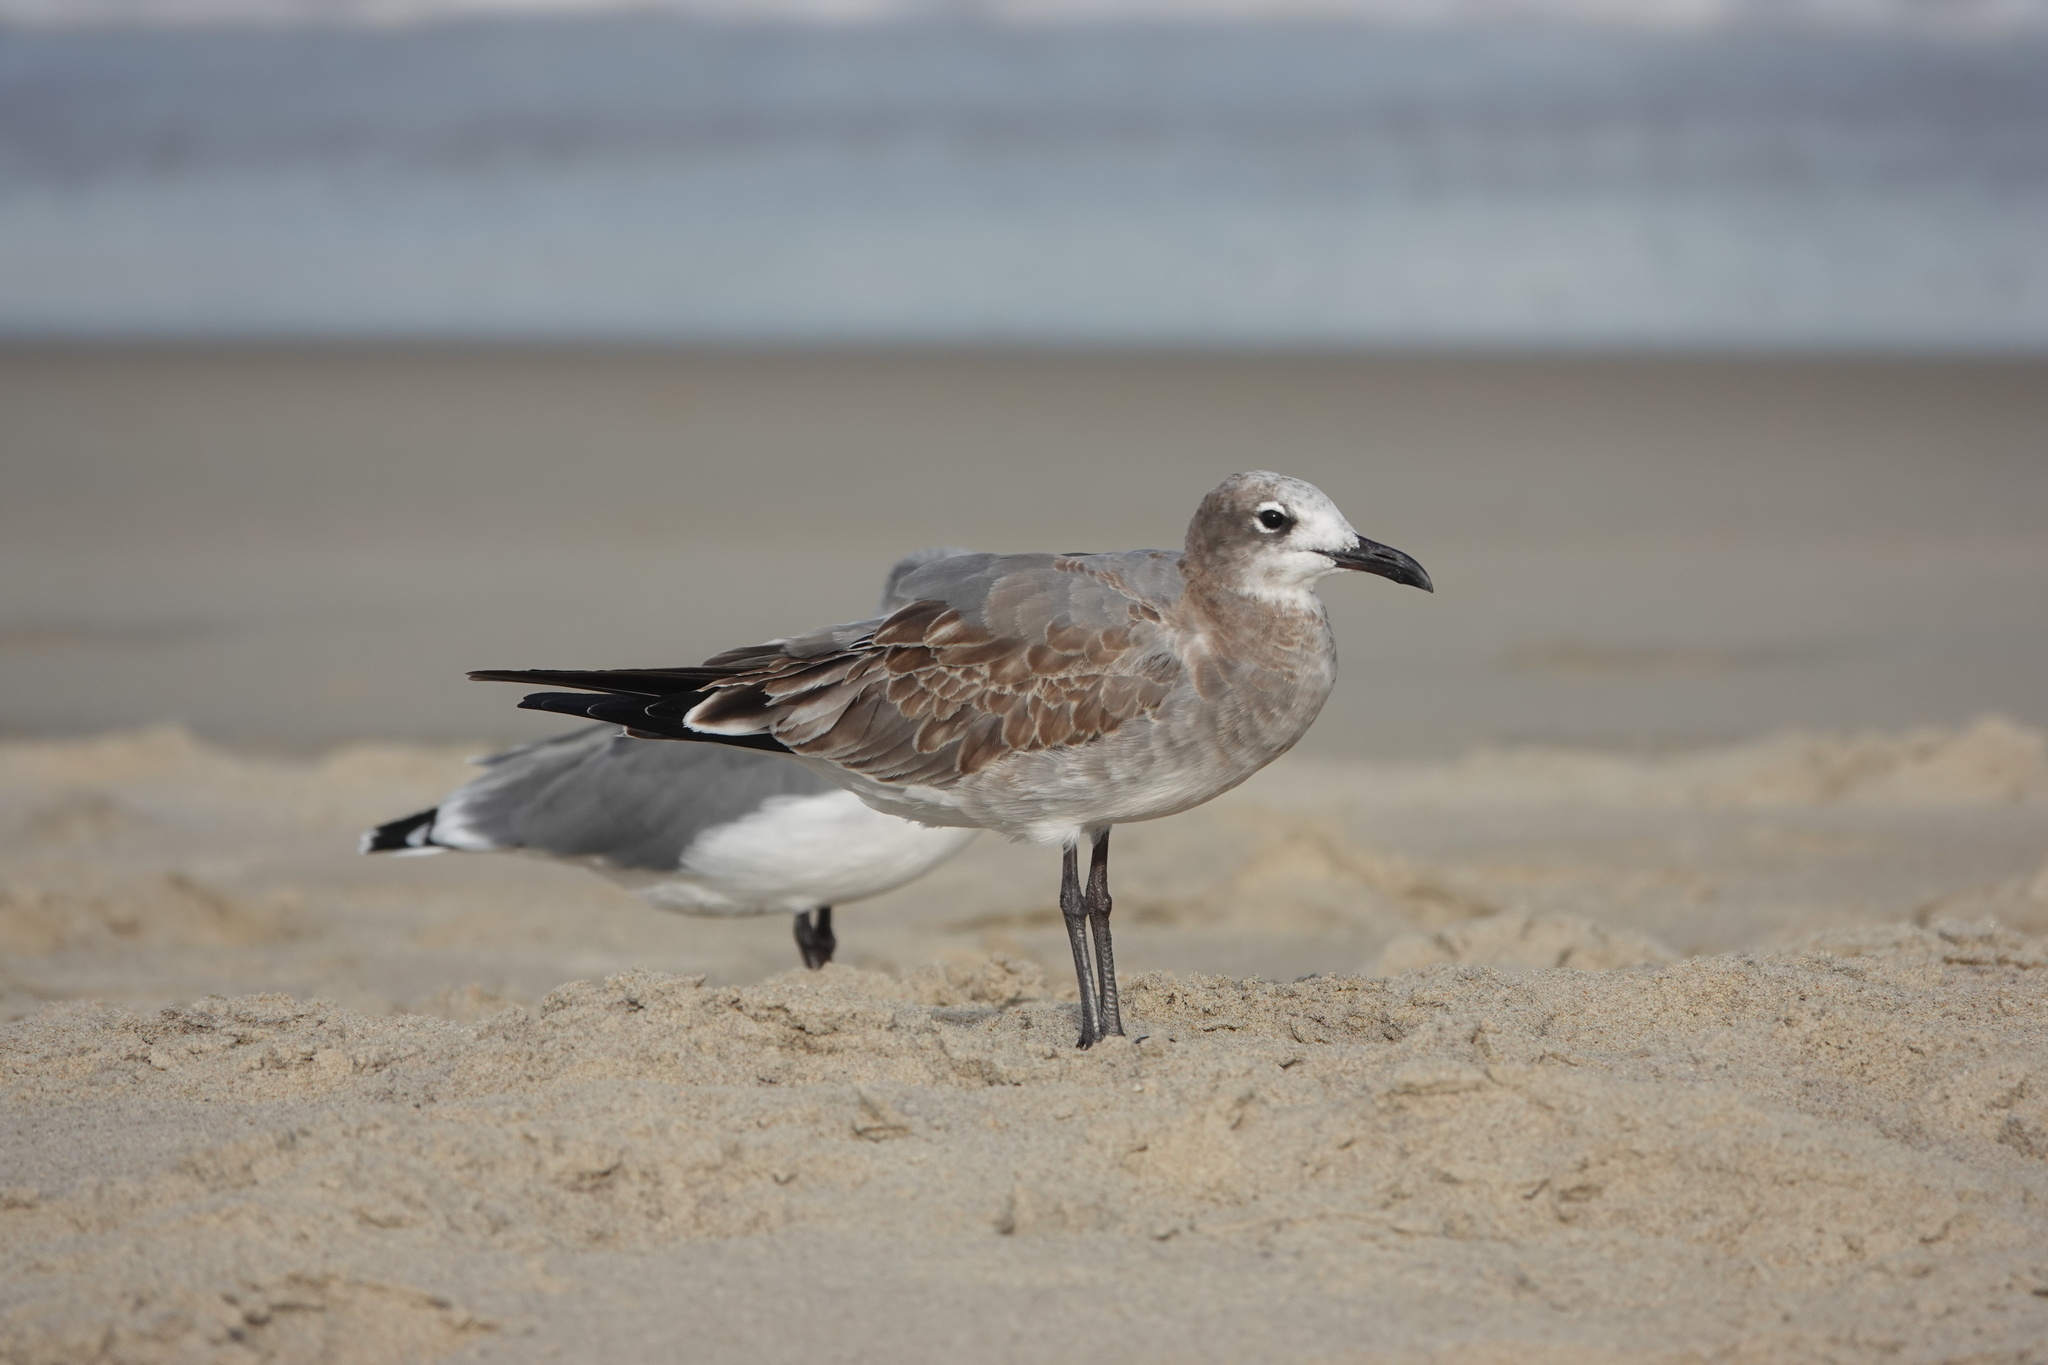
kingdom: Animalia
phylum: Chordata
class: Aves
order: Charadriiformes
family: Laridae
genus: Leucophaeus
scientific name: Leucophaeus atricilla
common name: Laughing gull
